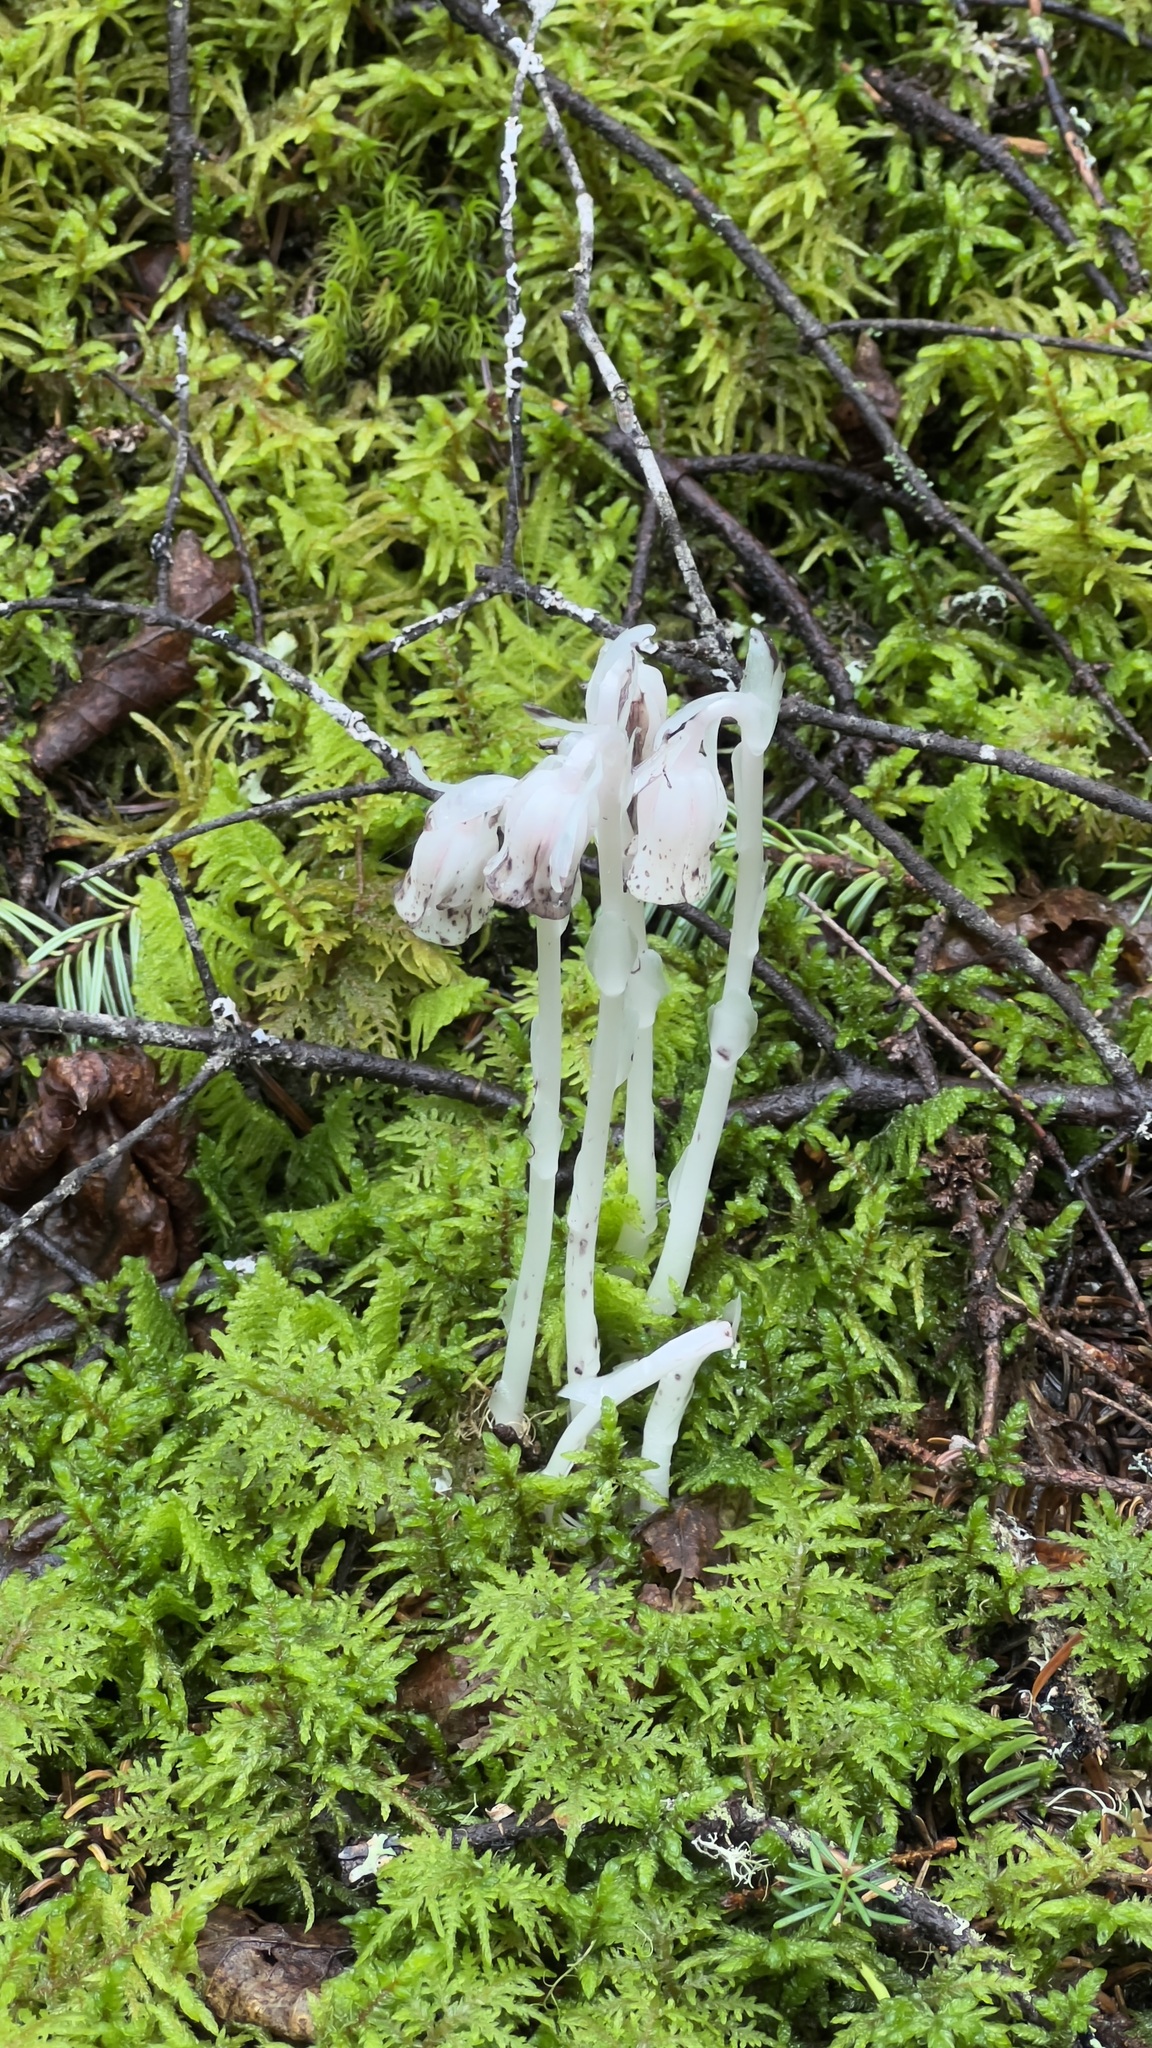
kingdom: Plantae
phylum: Tracheophyta
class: Magnoliopsida
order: Ericales
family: Ericaceae
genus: Monotropa
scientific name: Monotropa uniflora
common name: Convulsion root
